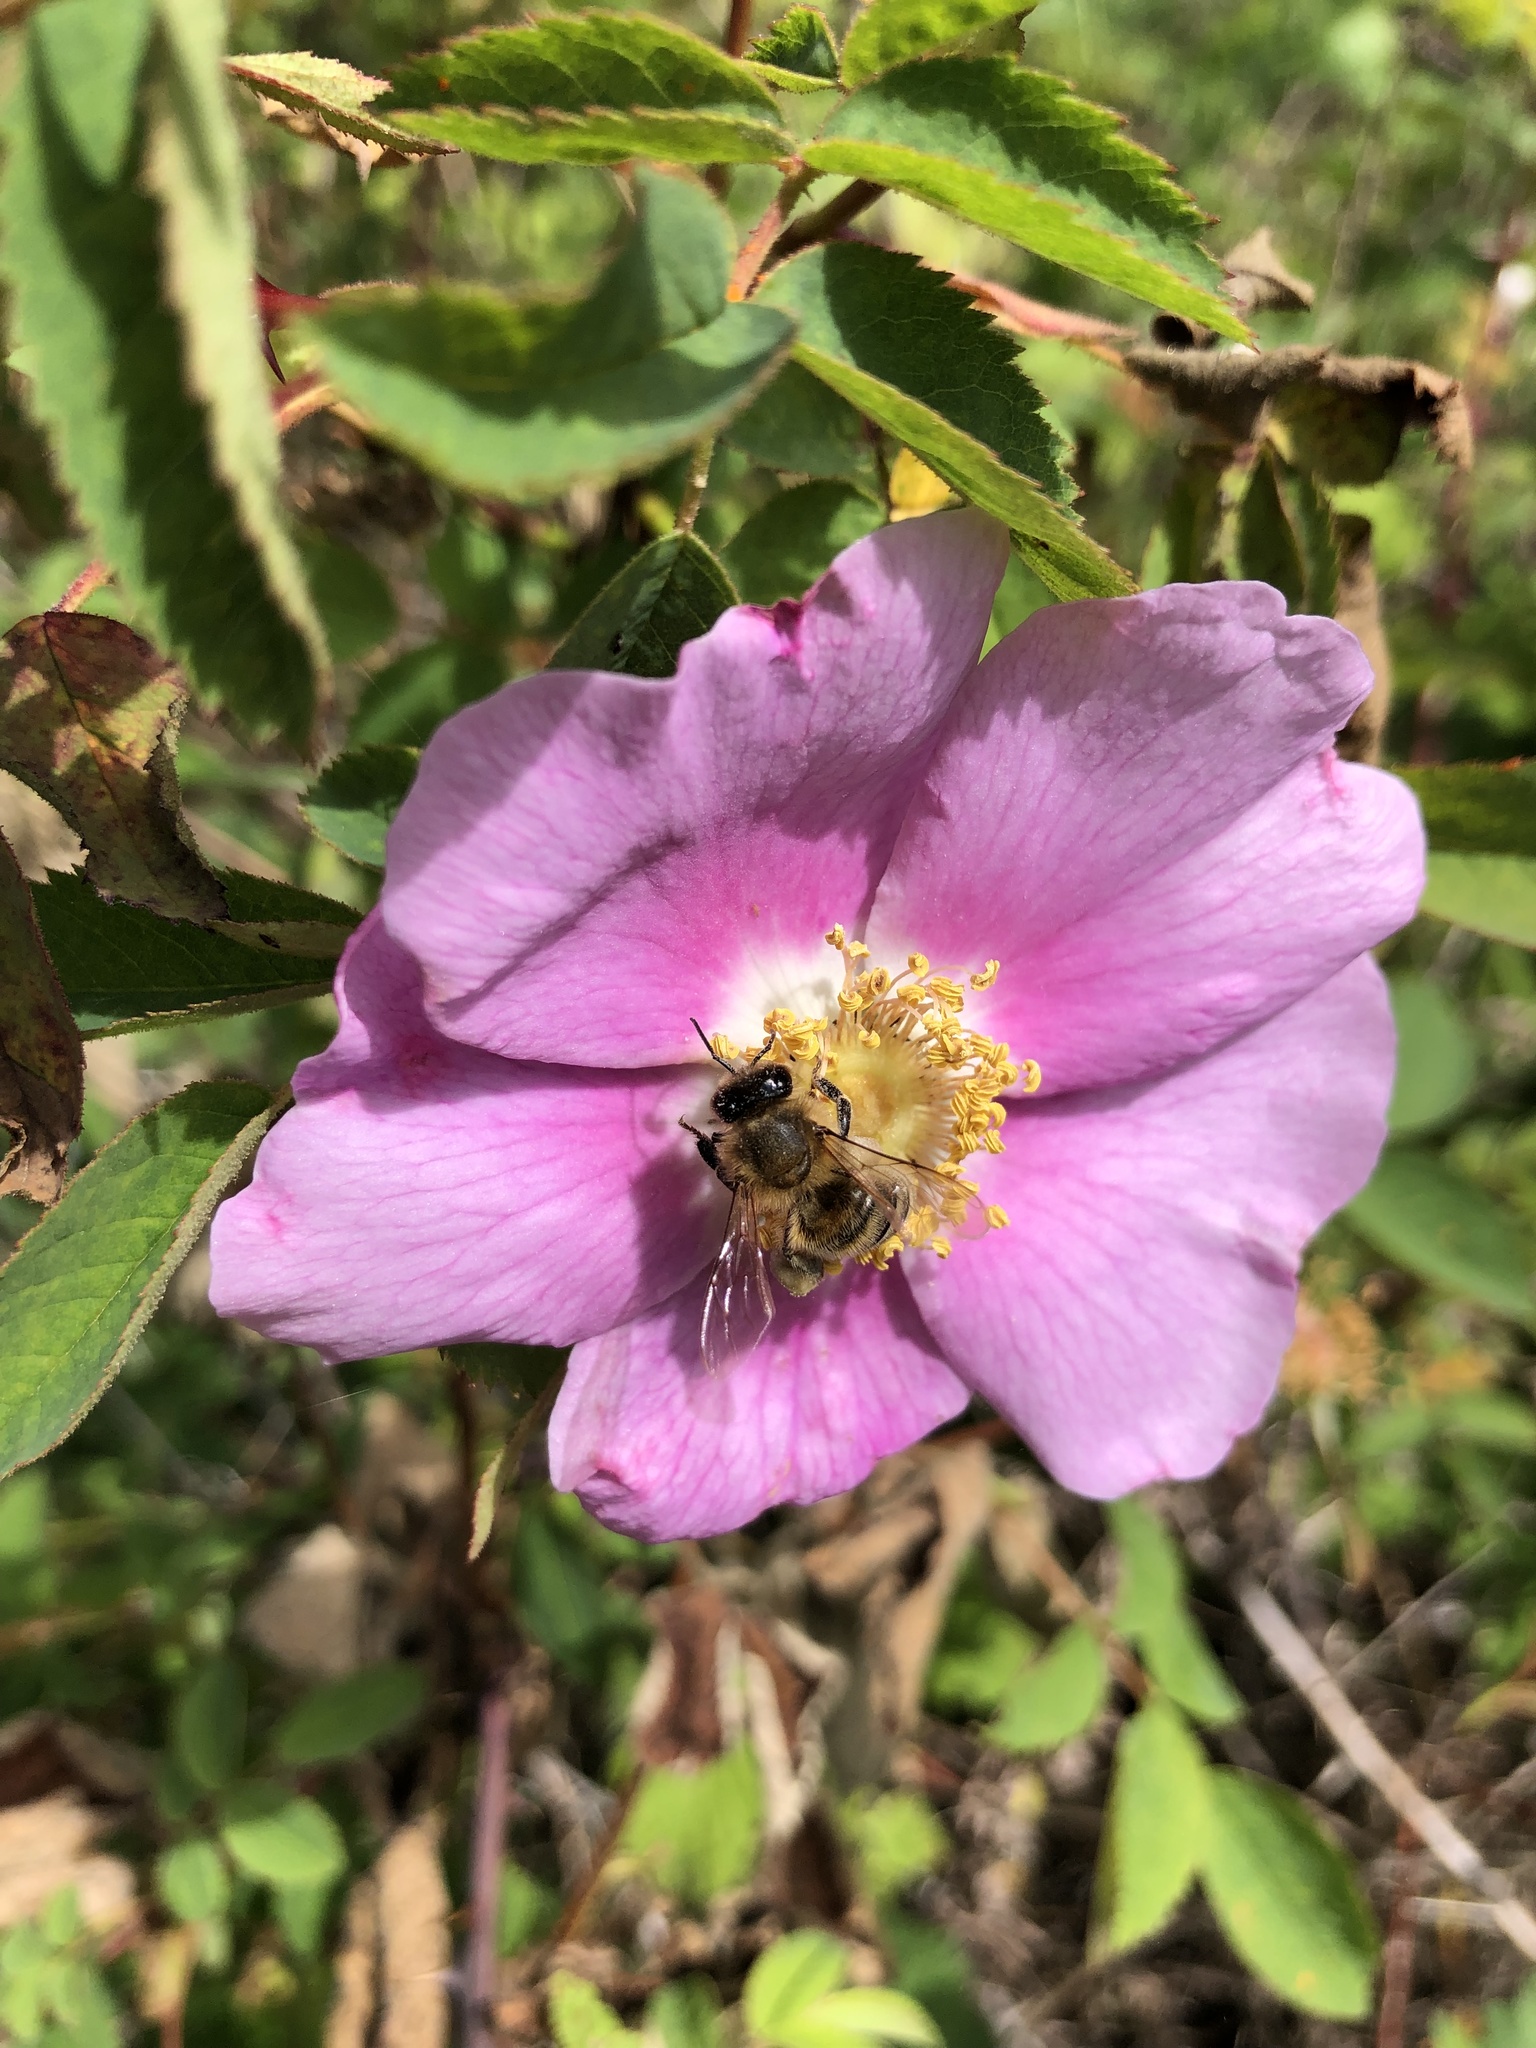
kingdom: Animalia
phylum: Arthropoda
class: Insecta
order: Hymenoptera
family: Apidae
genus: Apis
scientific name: Apis mellifera
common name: Honey bee
